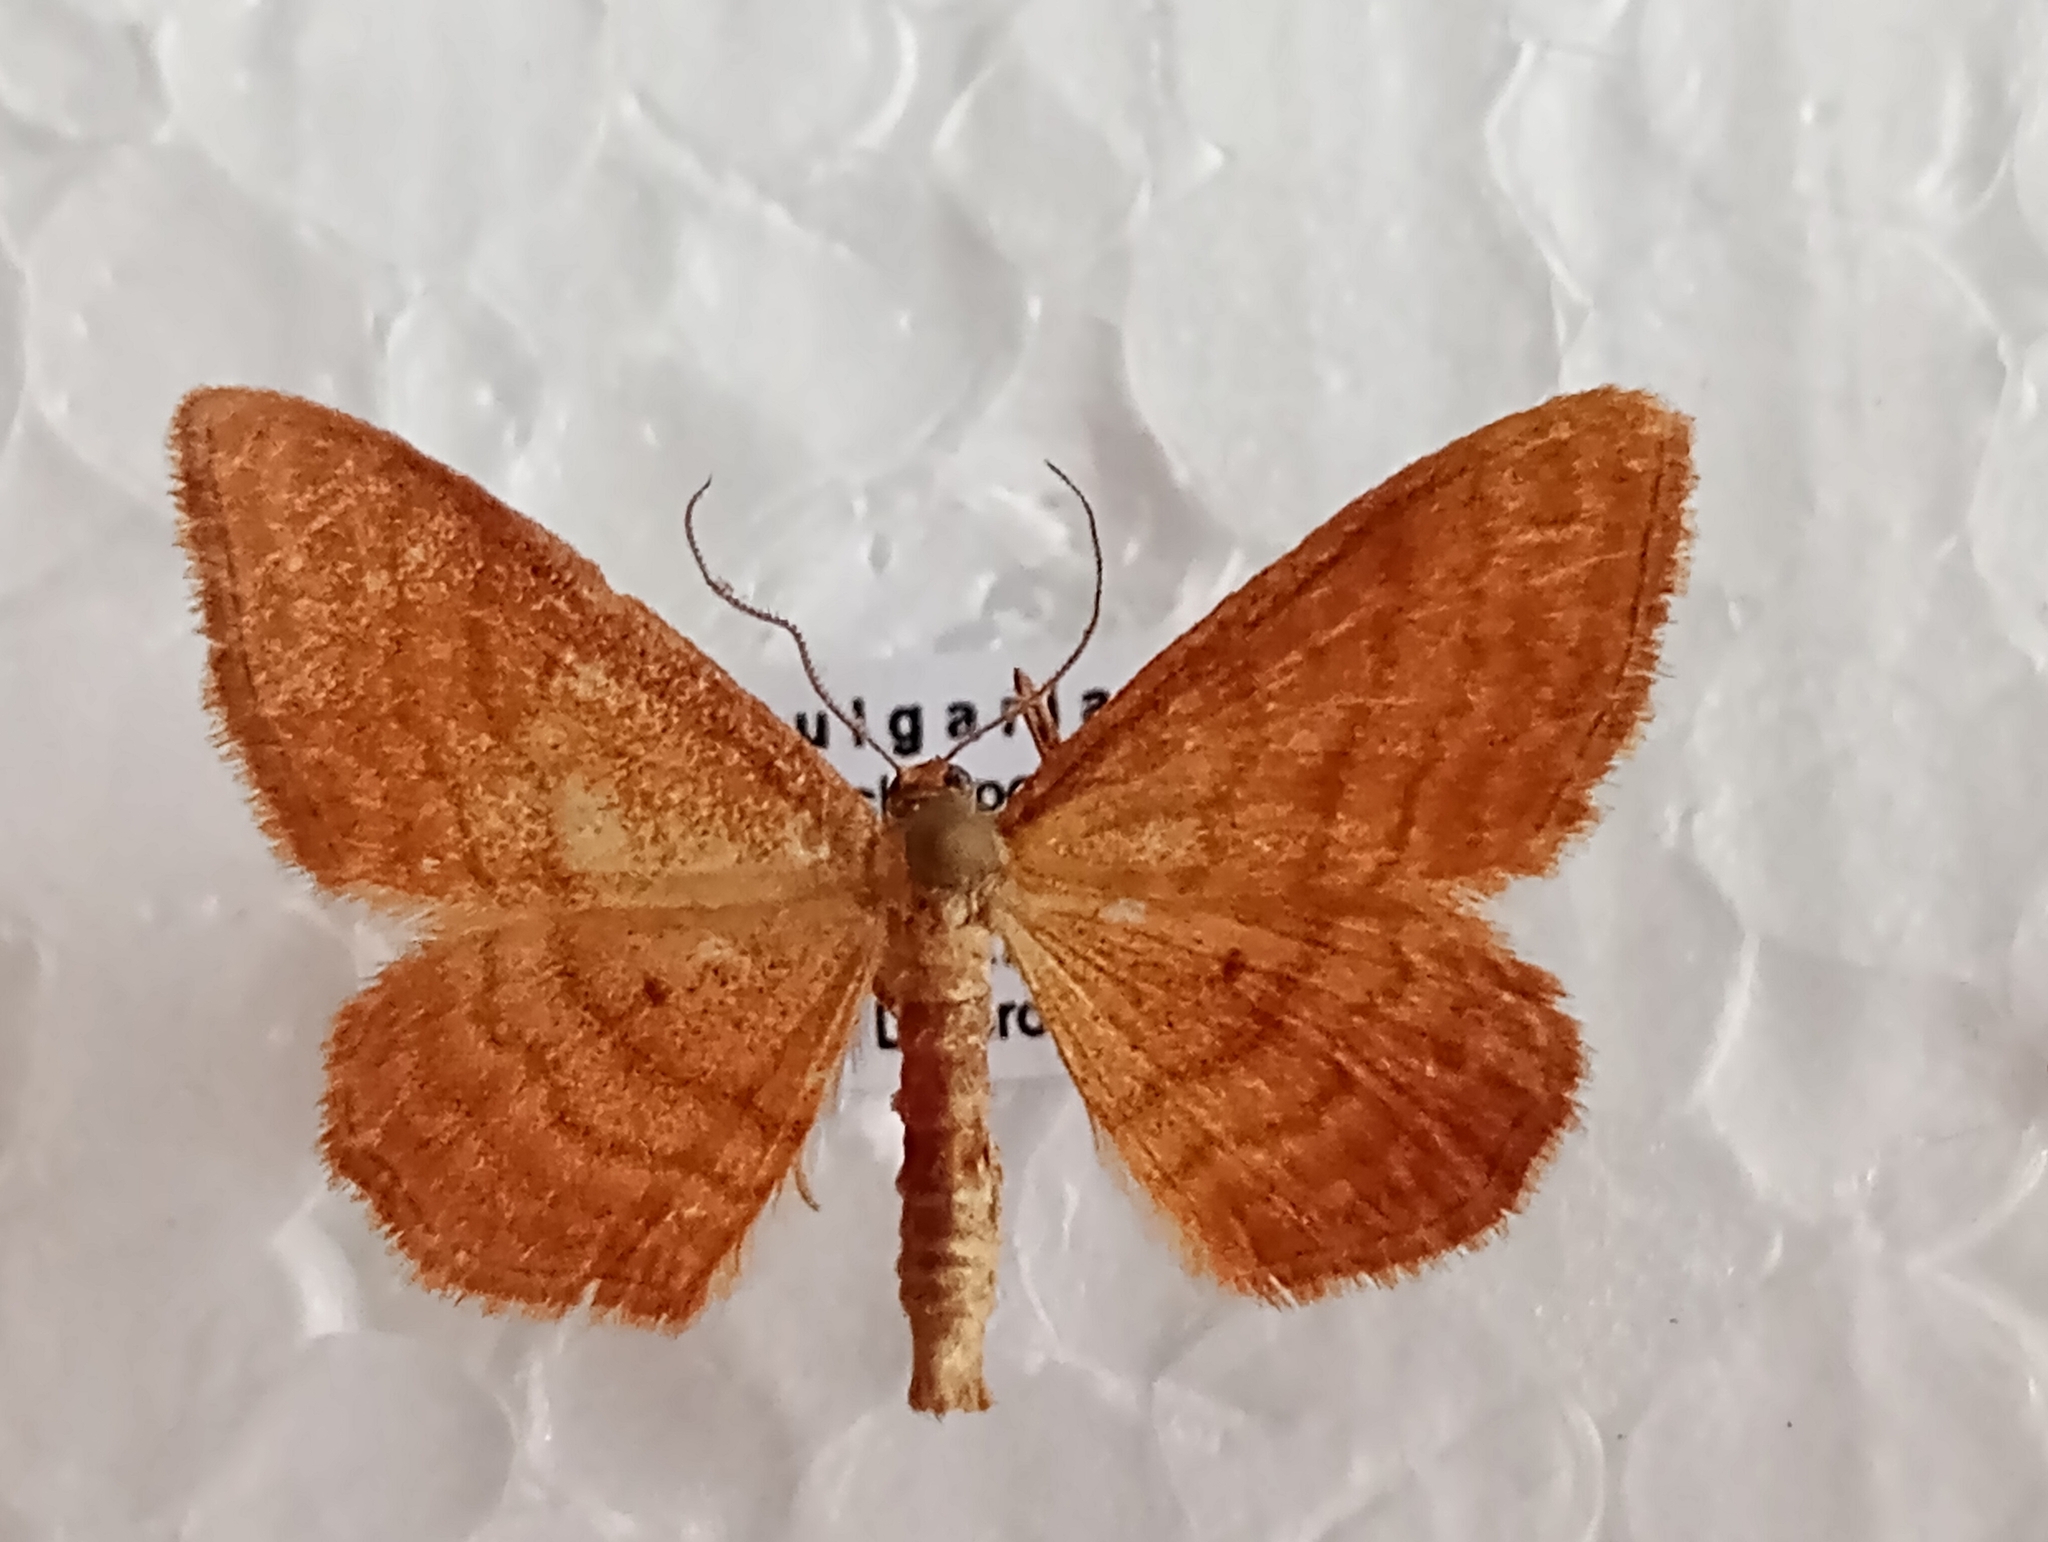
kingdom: Animalia
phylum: Arthropoda
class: Insecta
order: Lepidoptera
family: Geometridae
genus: Idaea
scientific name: Idaea ochrata
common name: Bright wave
